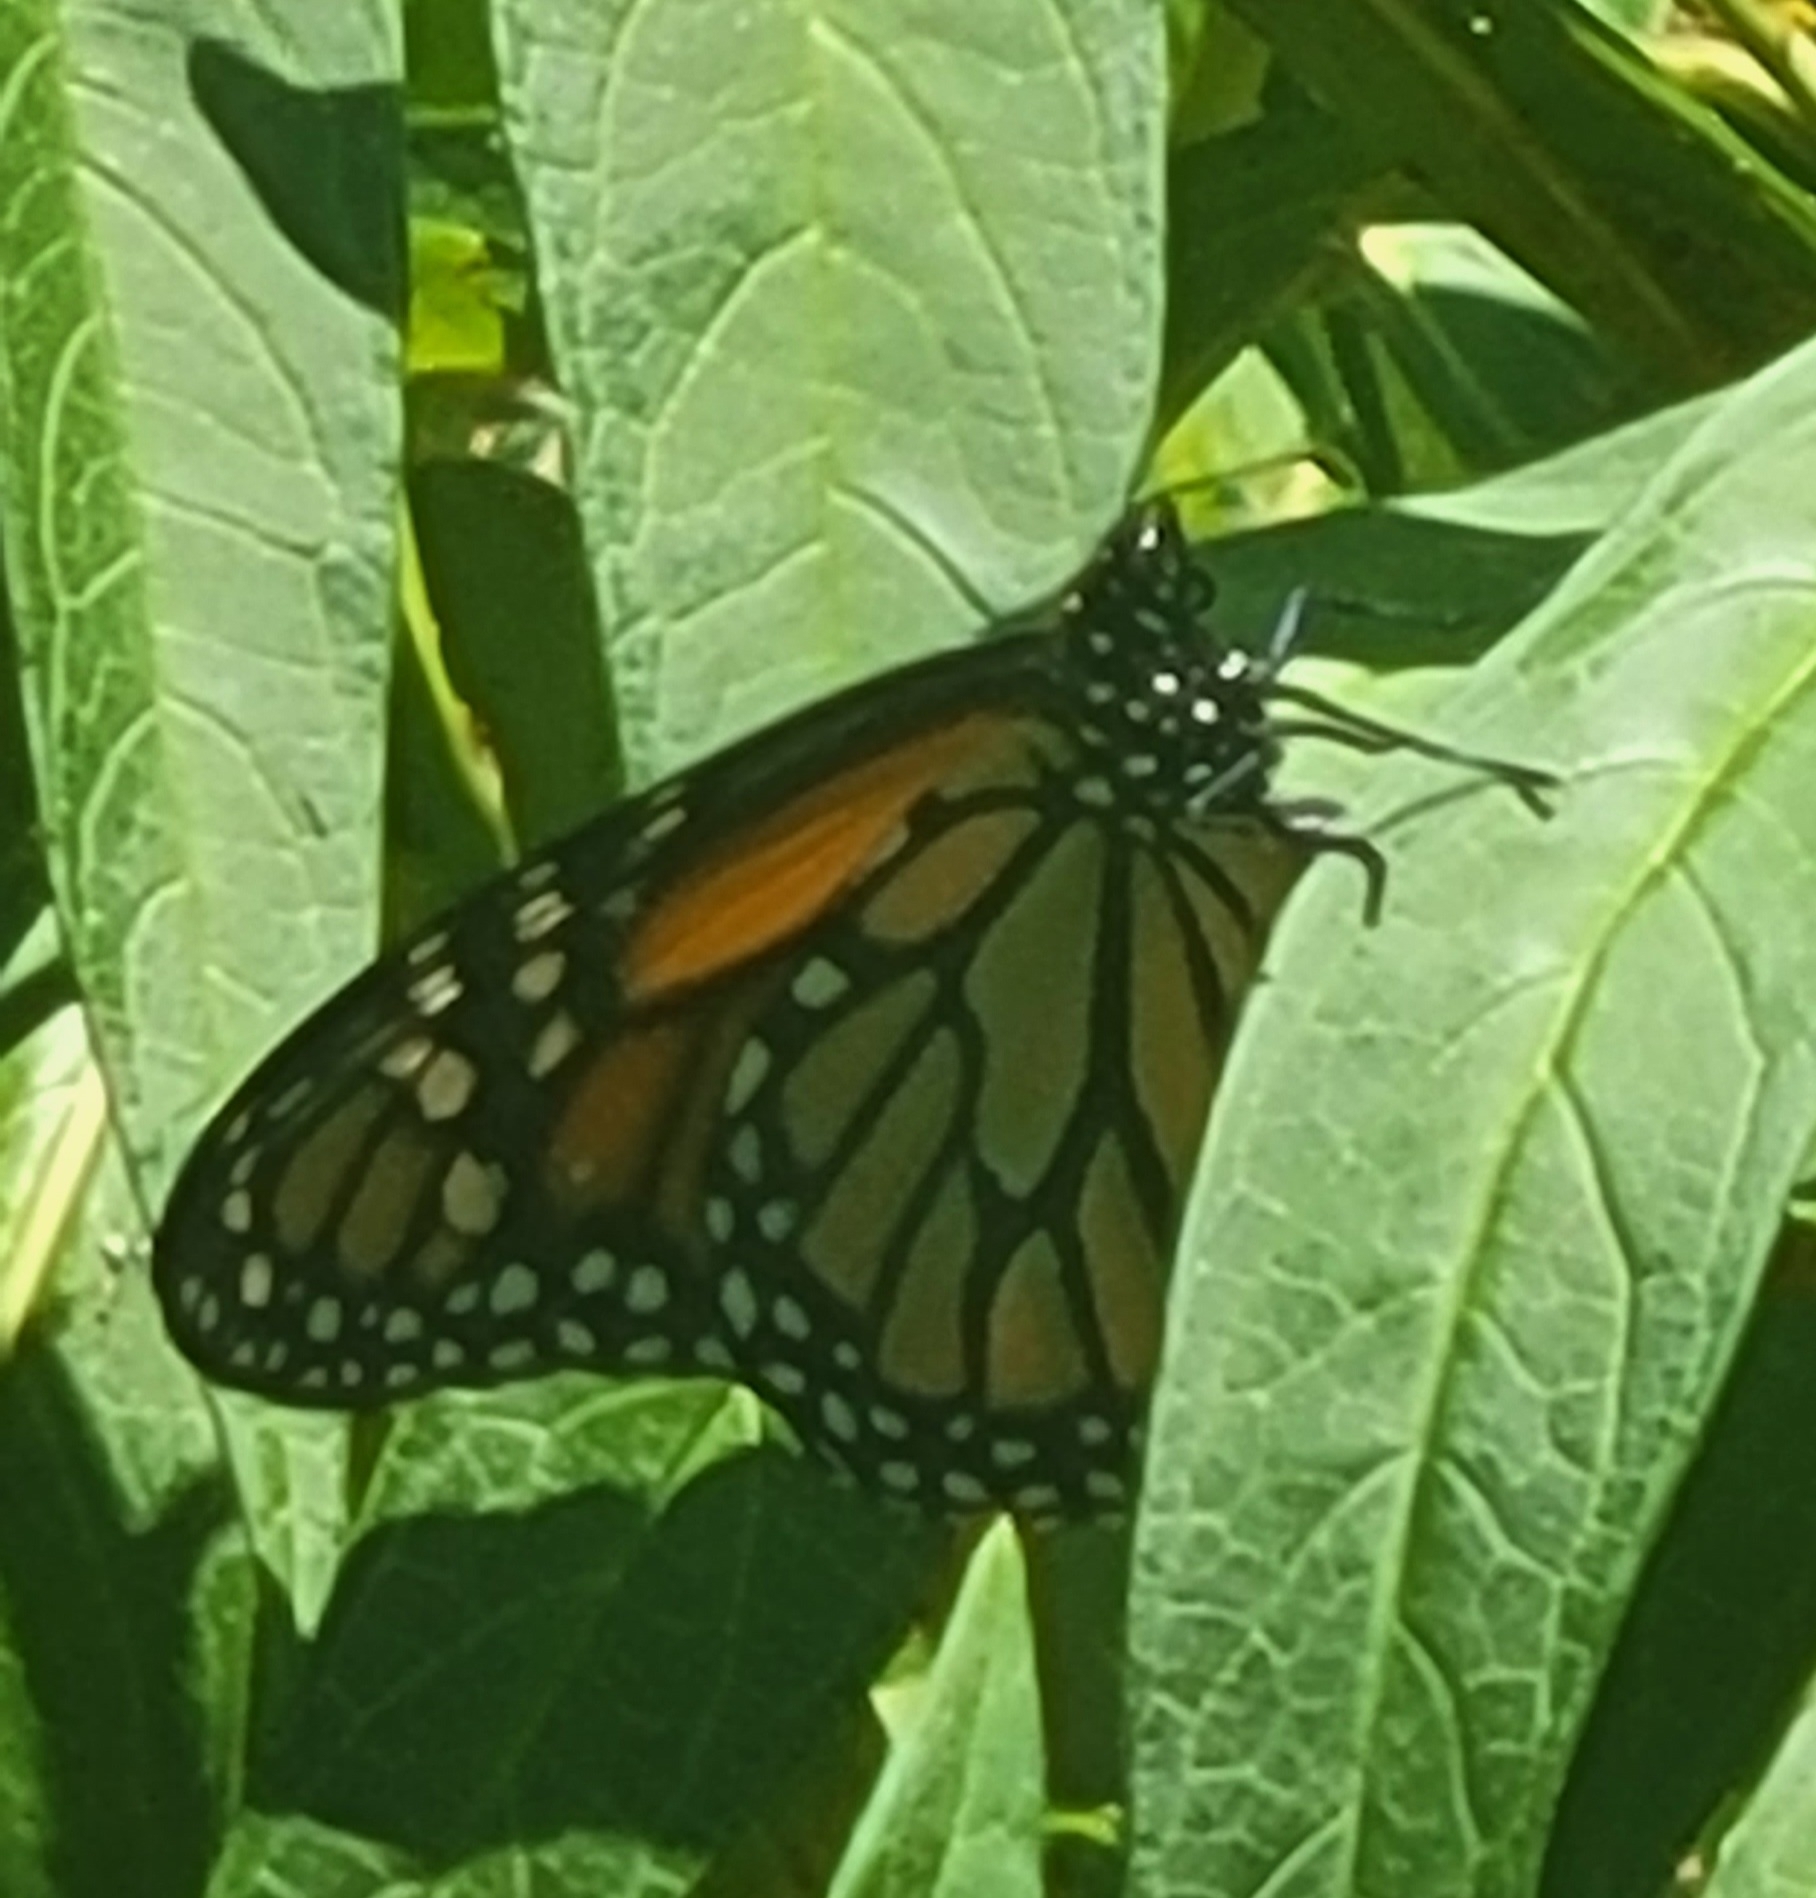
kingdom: Animalia
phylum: Arthropoda
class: Insecta
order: Lepidoptera
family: Nymphalidae
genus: Danaus
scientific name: Danaus plexippus
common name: Monarch
